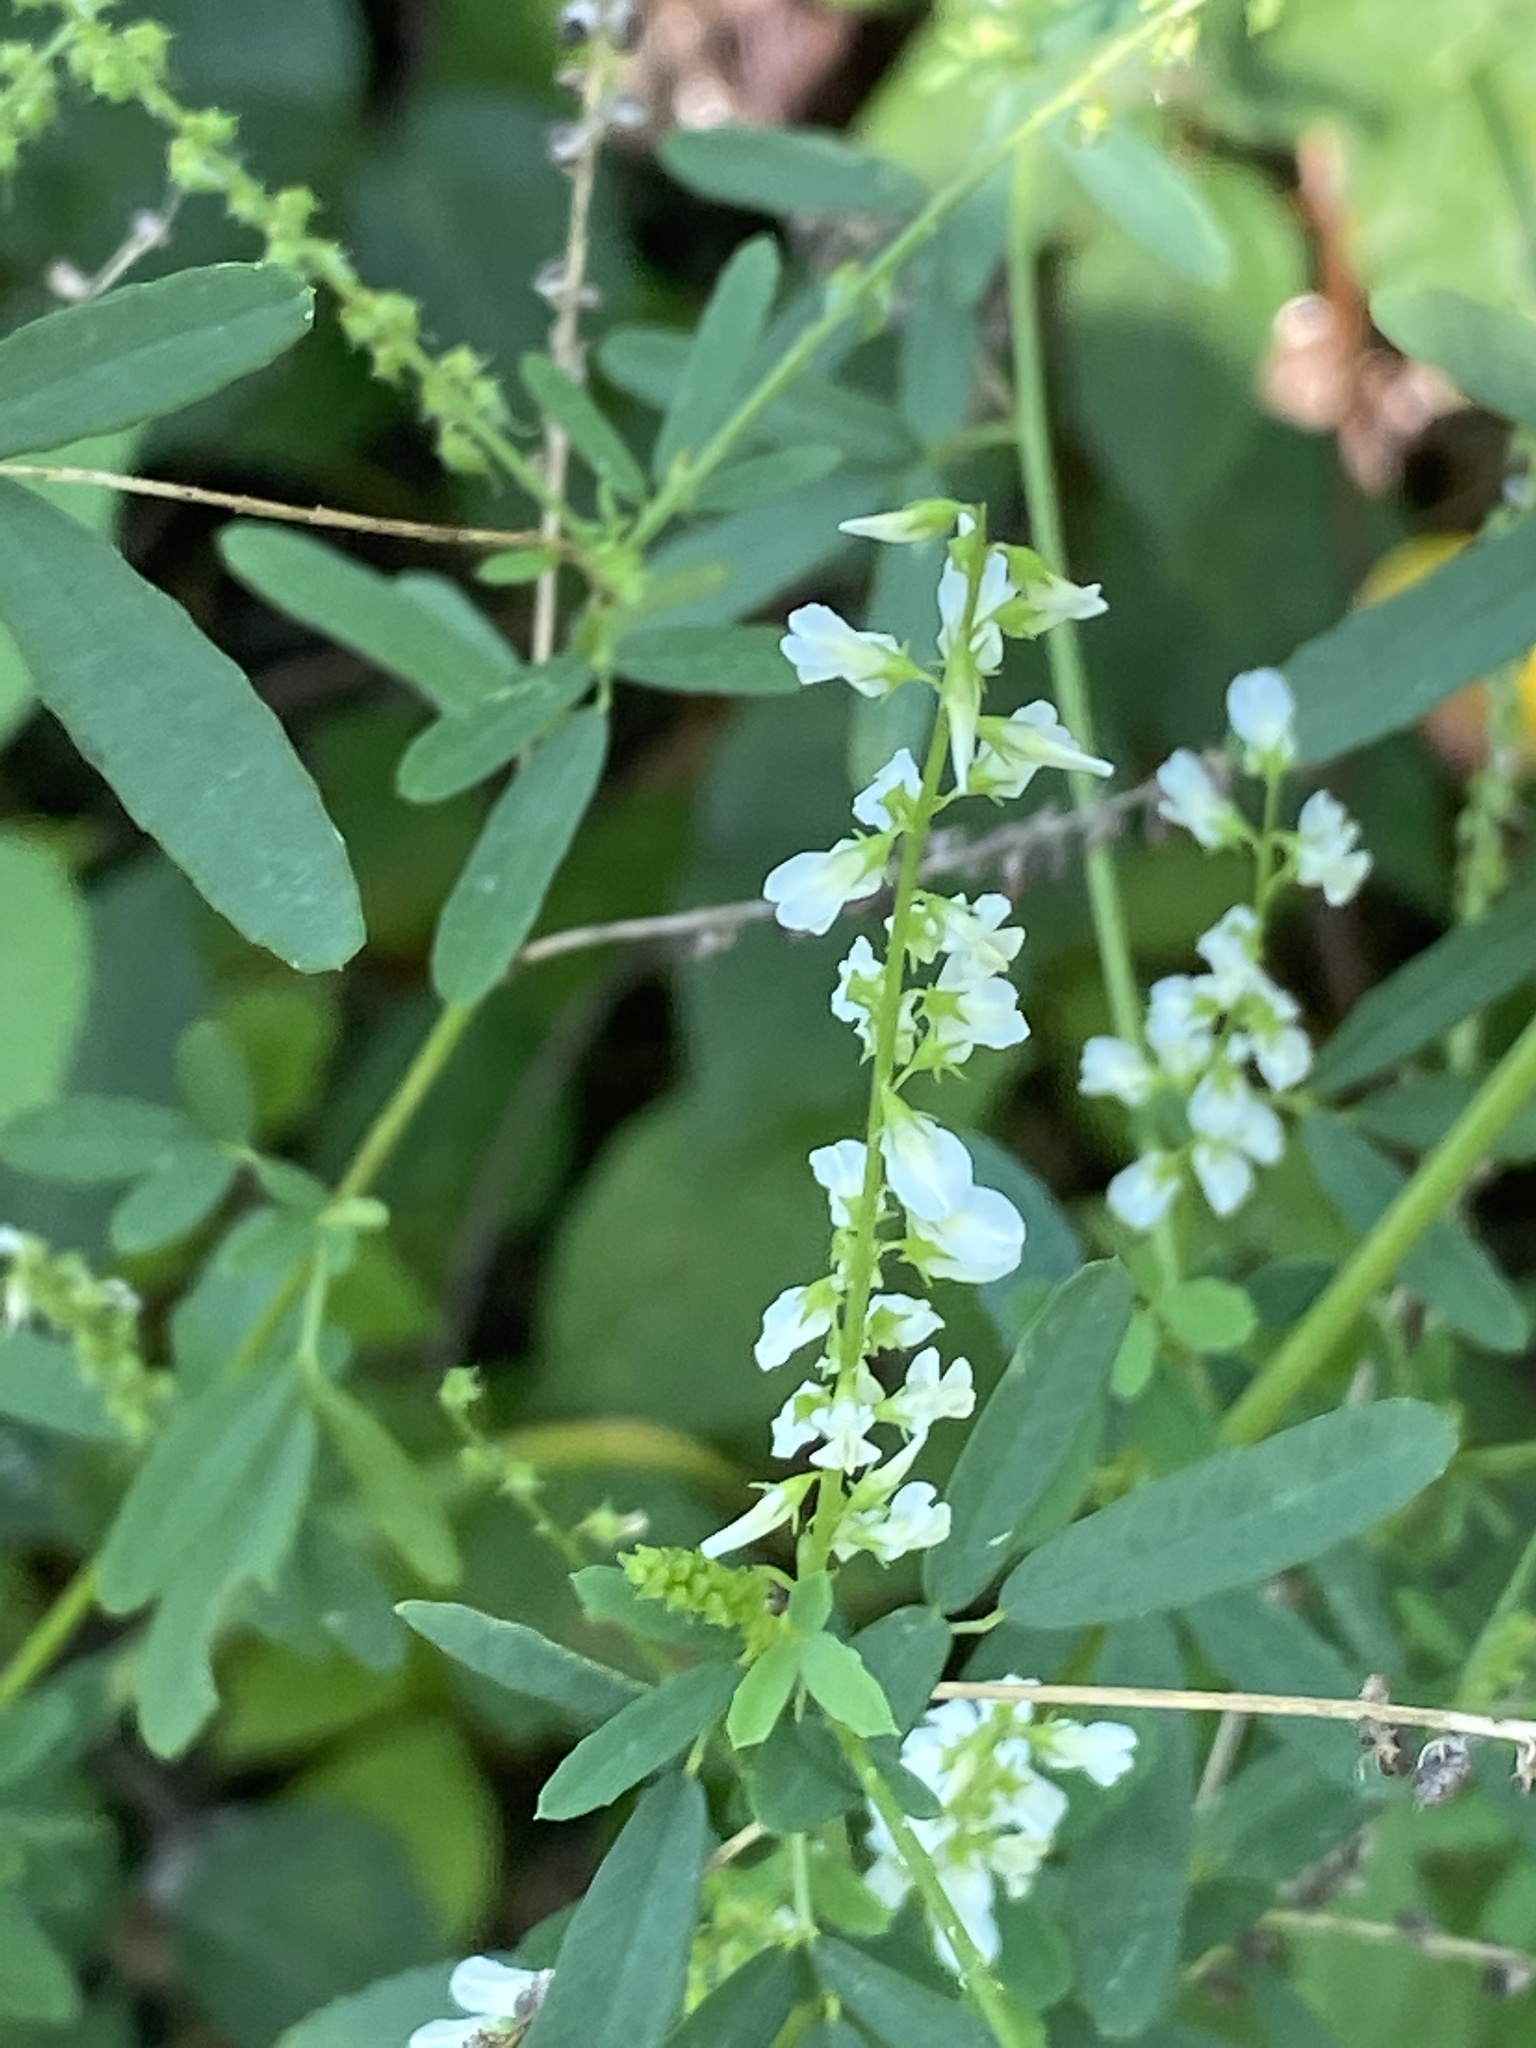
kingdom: Plantae
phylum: Tracheophyta
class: Magnoliopsida
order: Fabales
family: Fabaceae
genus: Melilotus
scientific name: Melilotus albus
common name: White melilot
